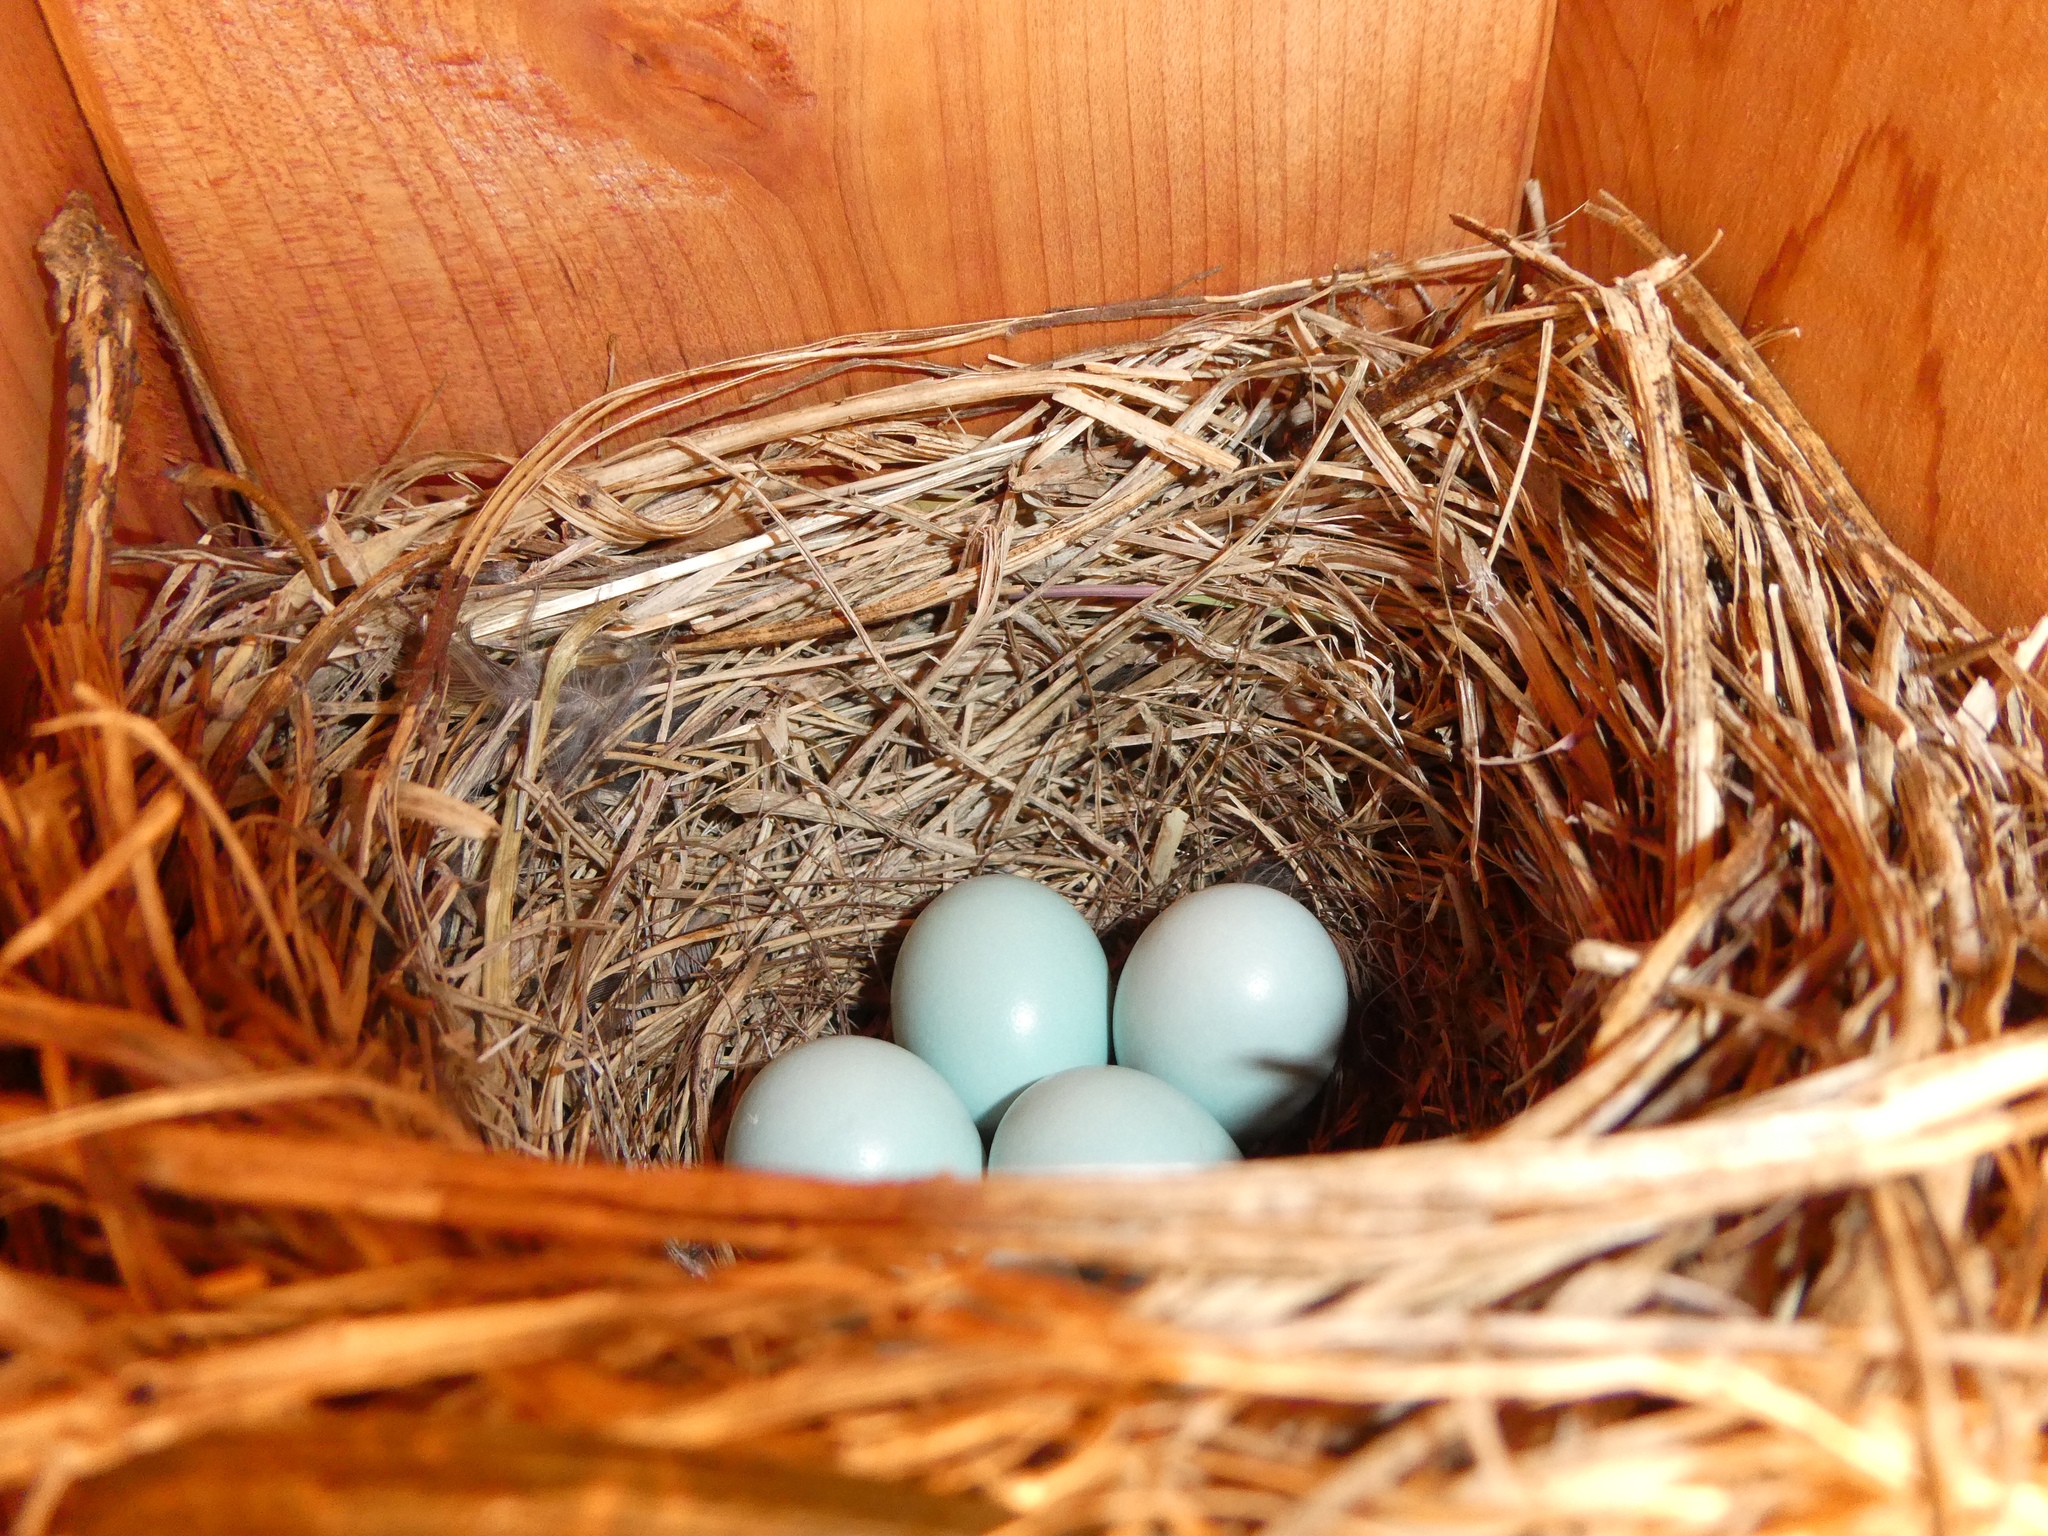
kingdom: Animalia
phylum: Chordata
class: Aves
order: Passeriformes
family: Turdidae
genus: Sialia
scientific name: Sialia sialis
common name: Eastern bluebird
